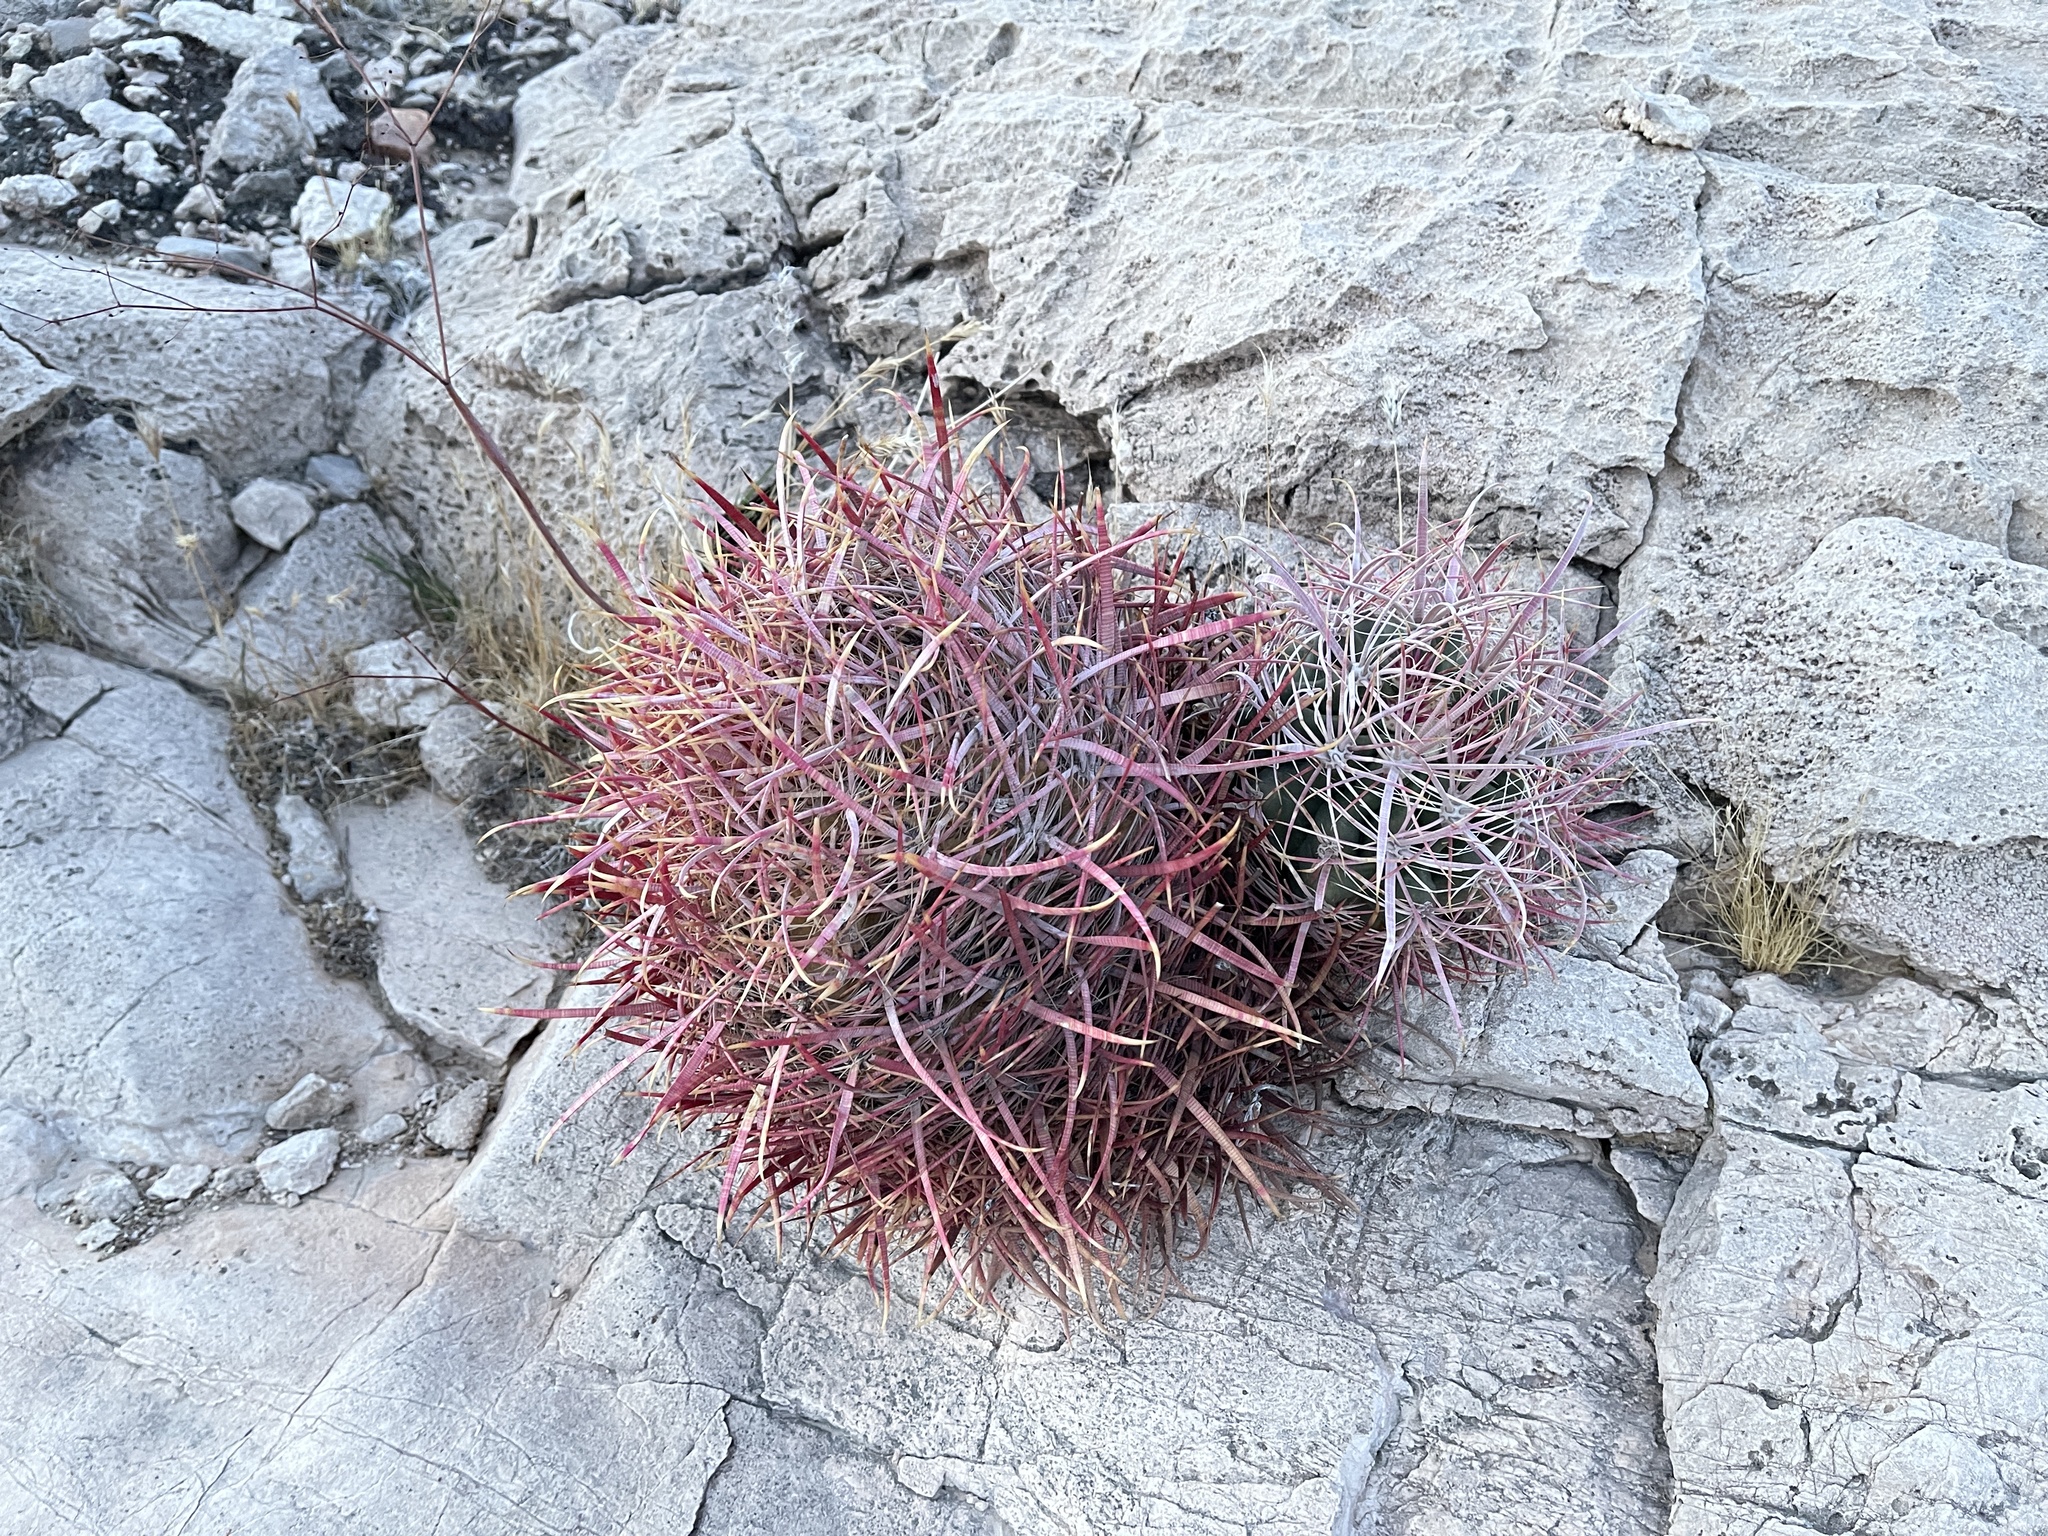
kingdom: Plantae
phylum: Tracheophyta
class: Magnoliopsida
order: Caryophyllales
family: Cactaceae
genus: Ferocactus
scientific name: Ferocactus cylindraceus
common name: California barrel cactus
